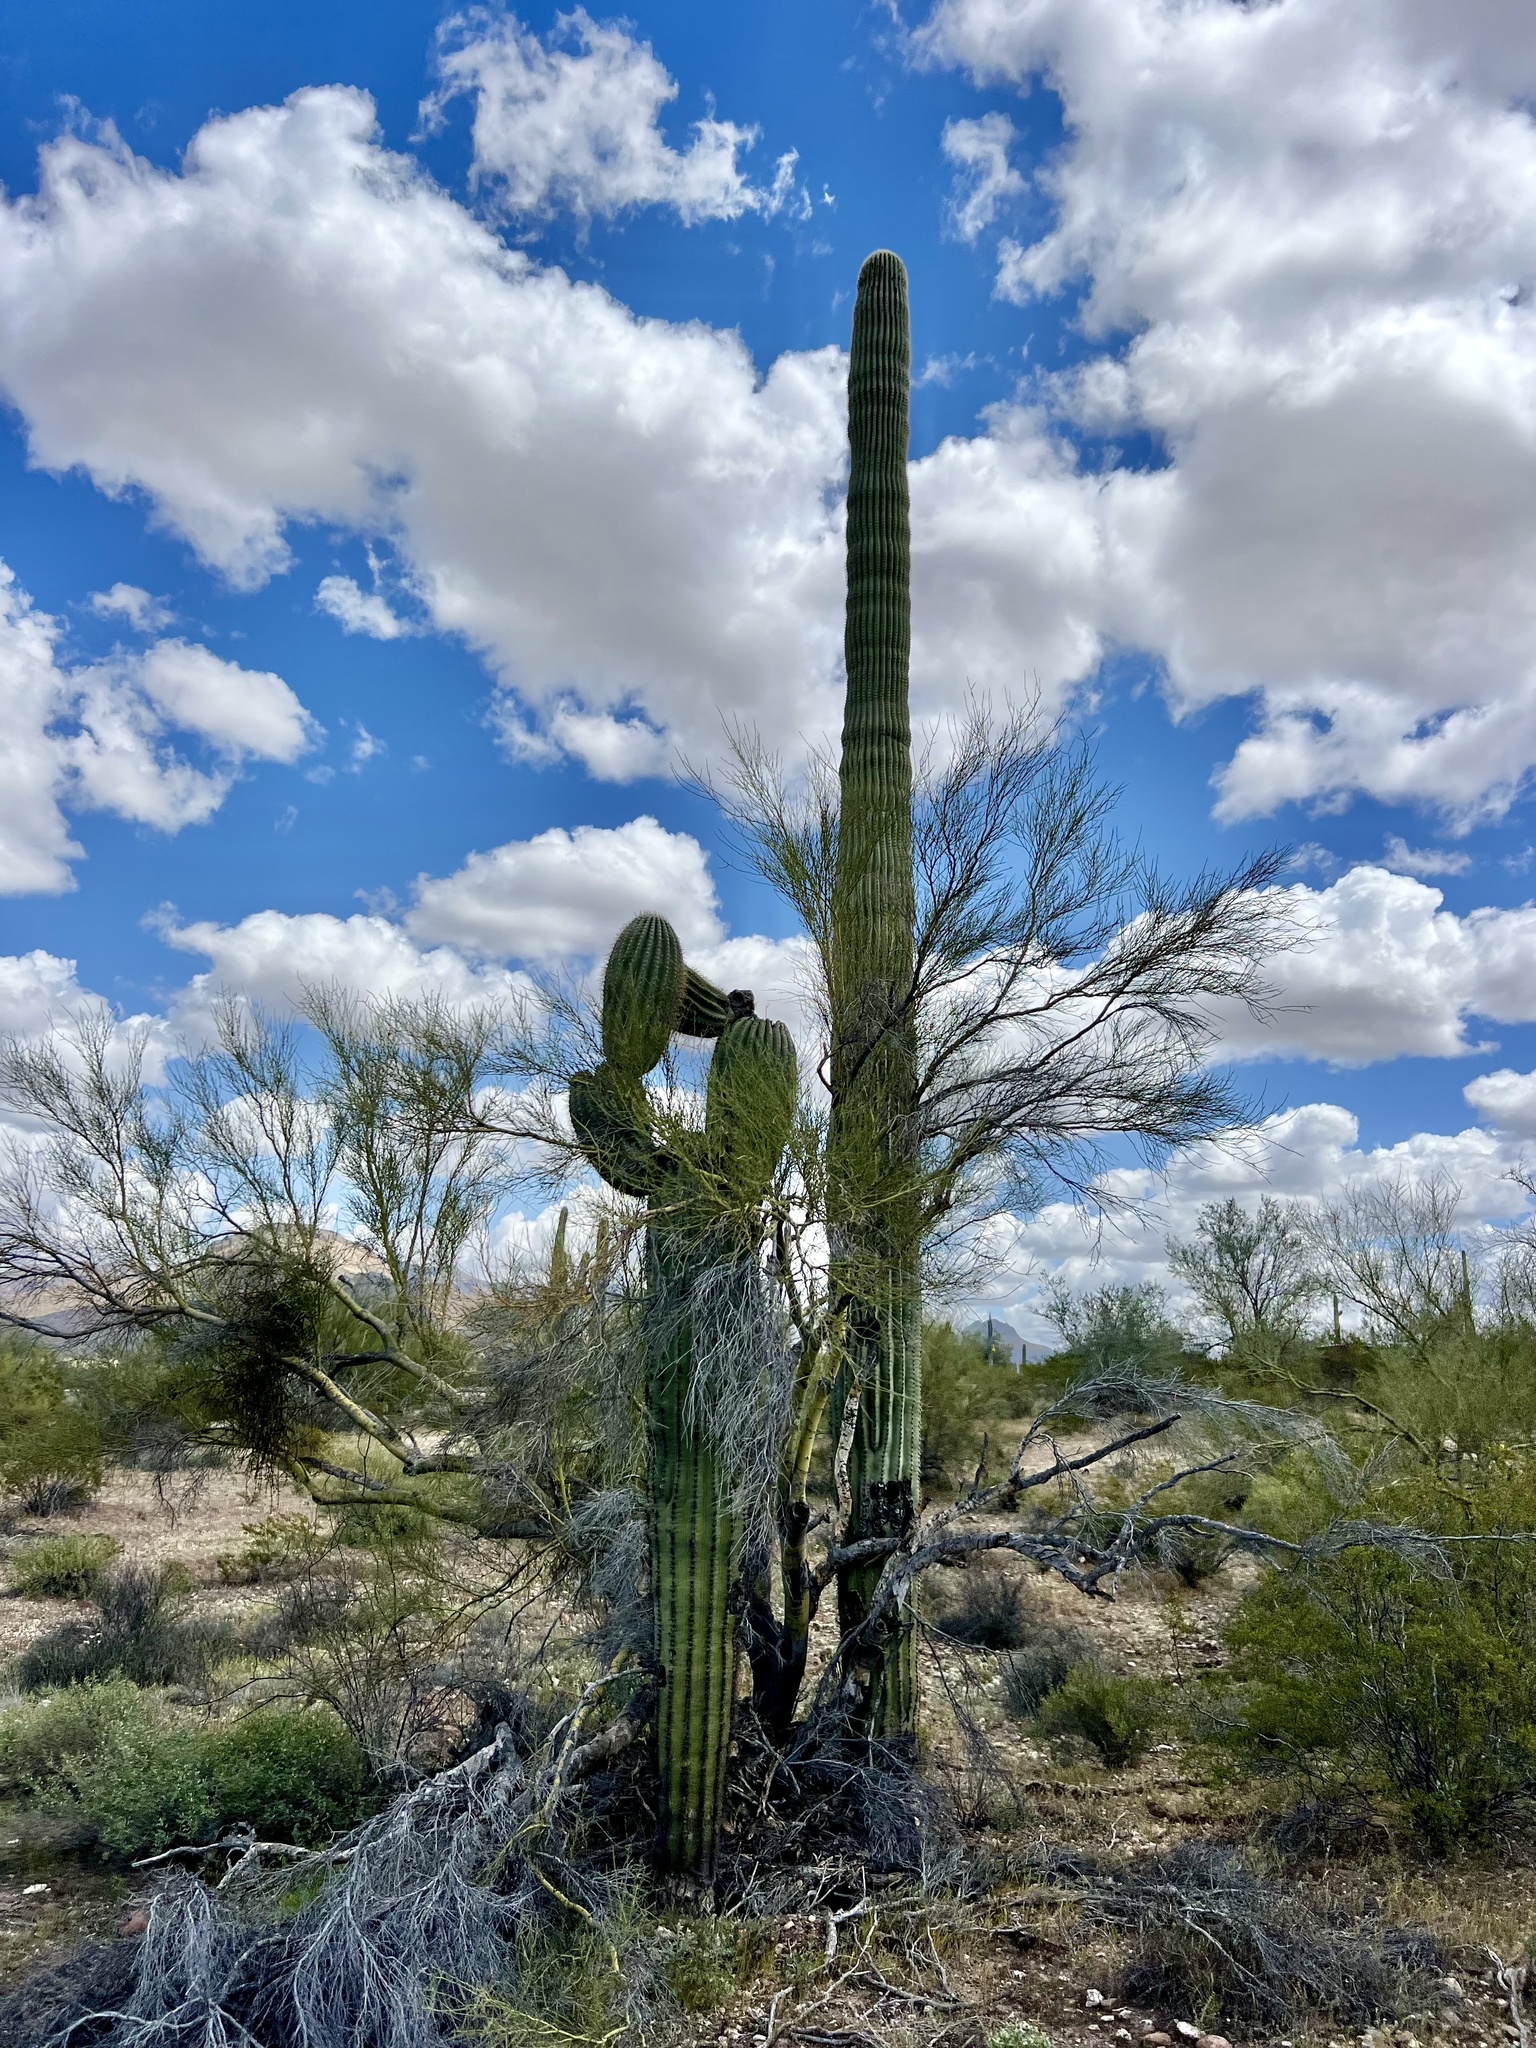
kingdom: Plantae
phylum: Tracheophyta
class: Magnoliopsida
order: Caryophyllales
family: Cactaceae
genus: Carnegiea
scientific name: Carnegiea gigantea
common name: Saguaro
